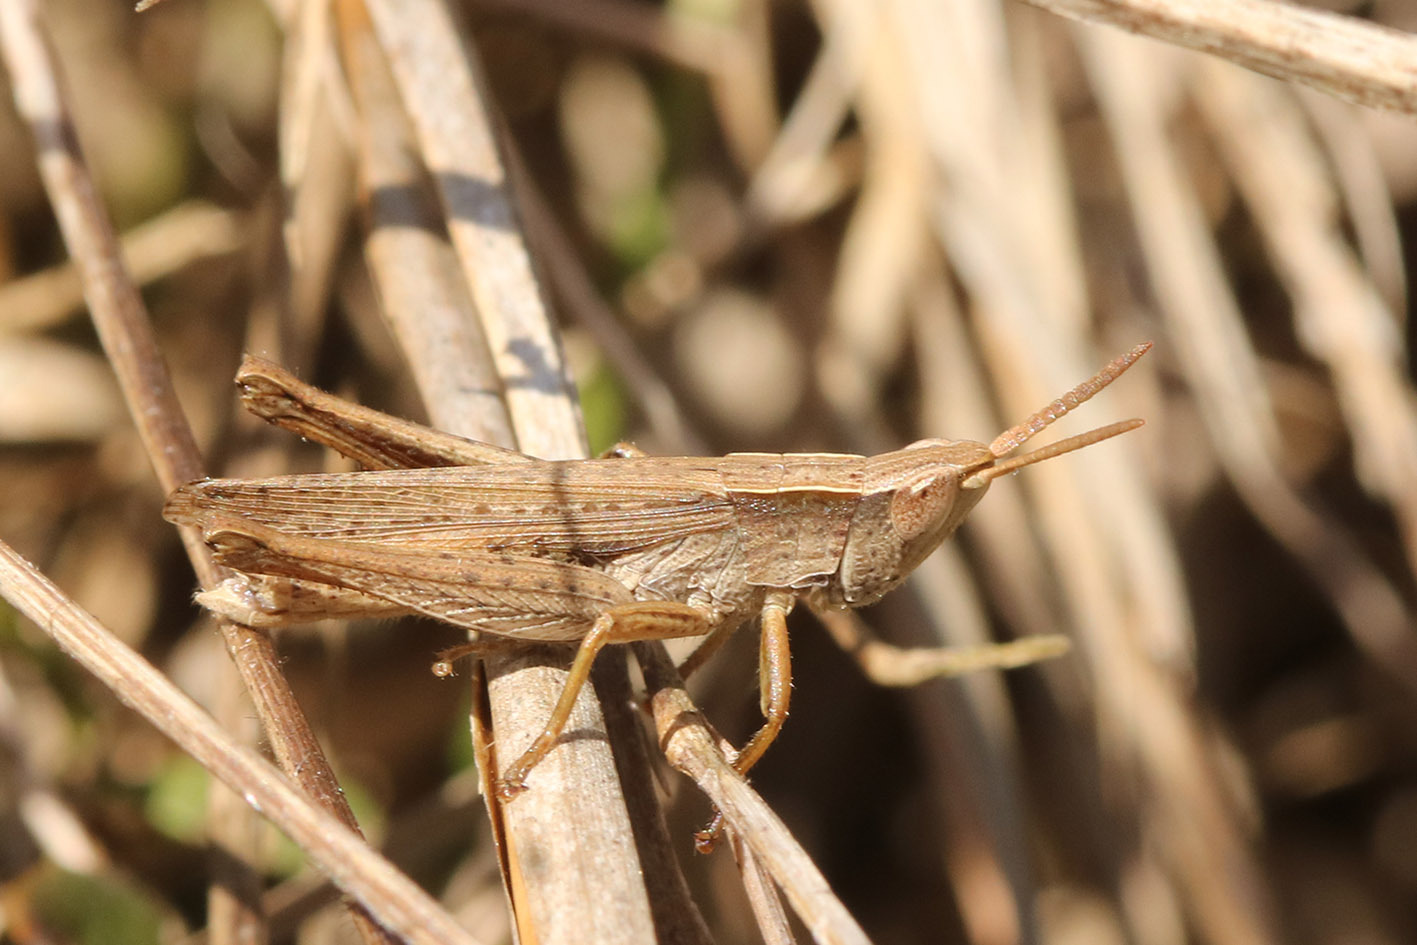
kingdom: Animalia
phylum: Arthropoda
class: Insecta
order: Orthoptera
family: Acrididae
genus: Laplatacris
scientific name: Laplatacris dispar
